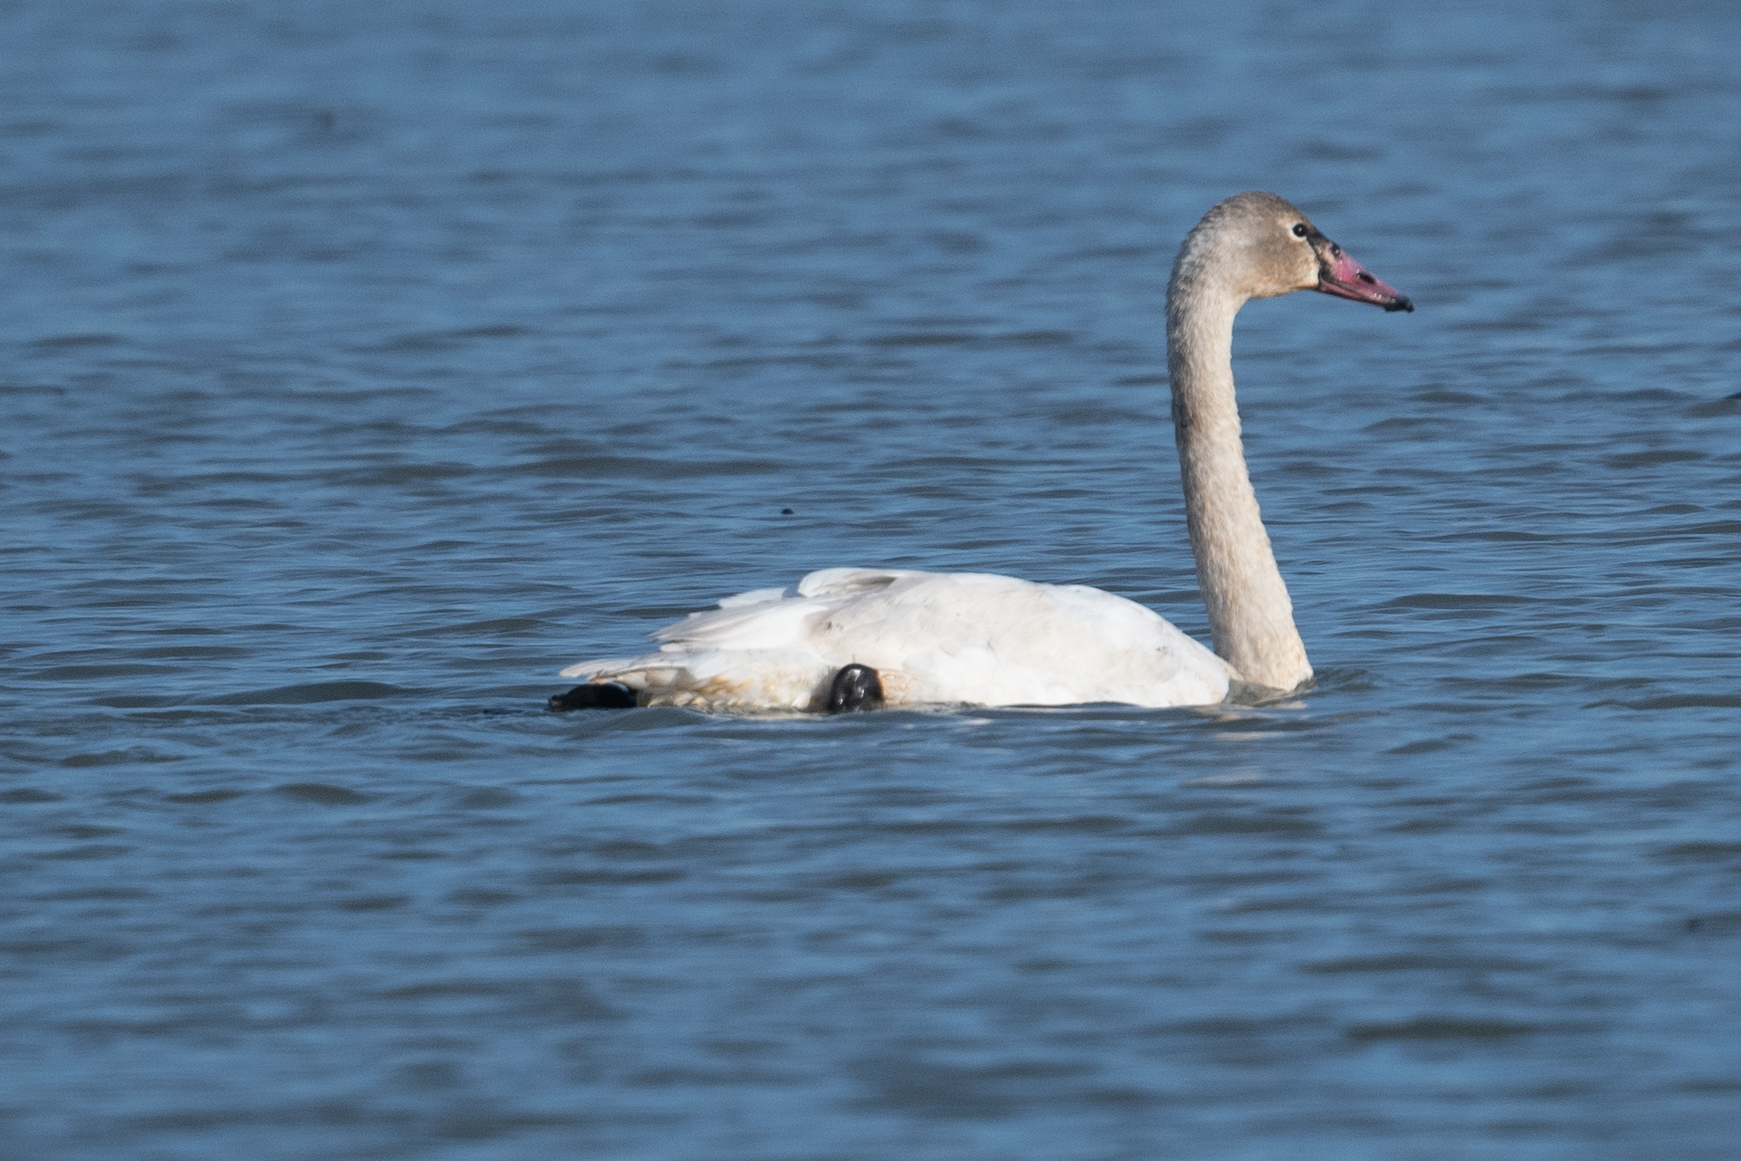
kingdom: Animalia
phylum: Chordata
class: Aves
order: Anseriformes
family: Anatidae
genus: Cygnus
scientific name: Cygnus columbianus
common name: Tundra swan
